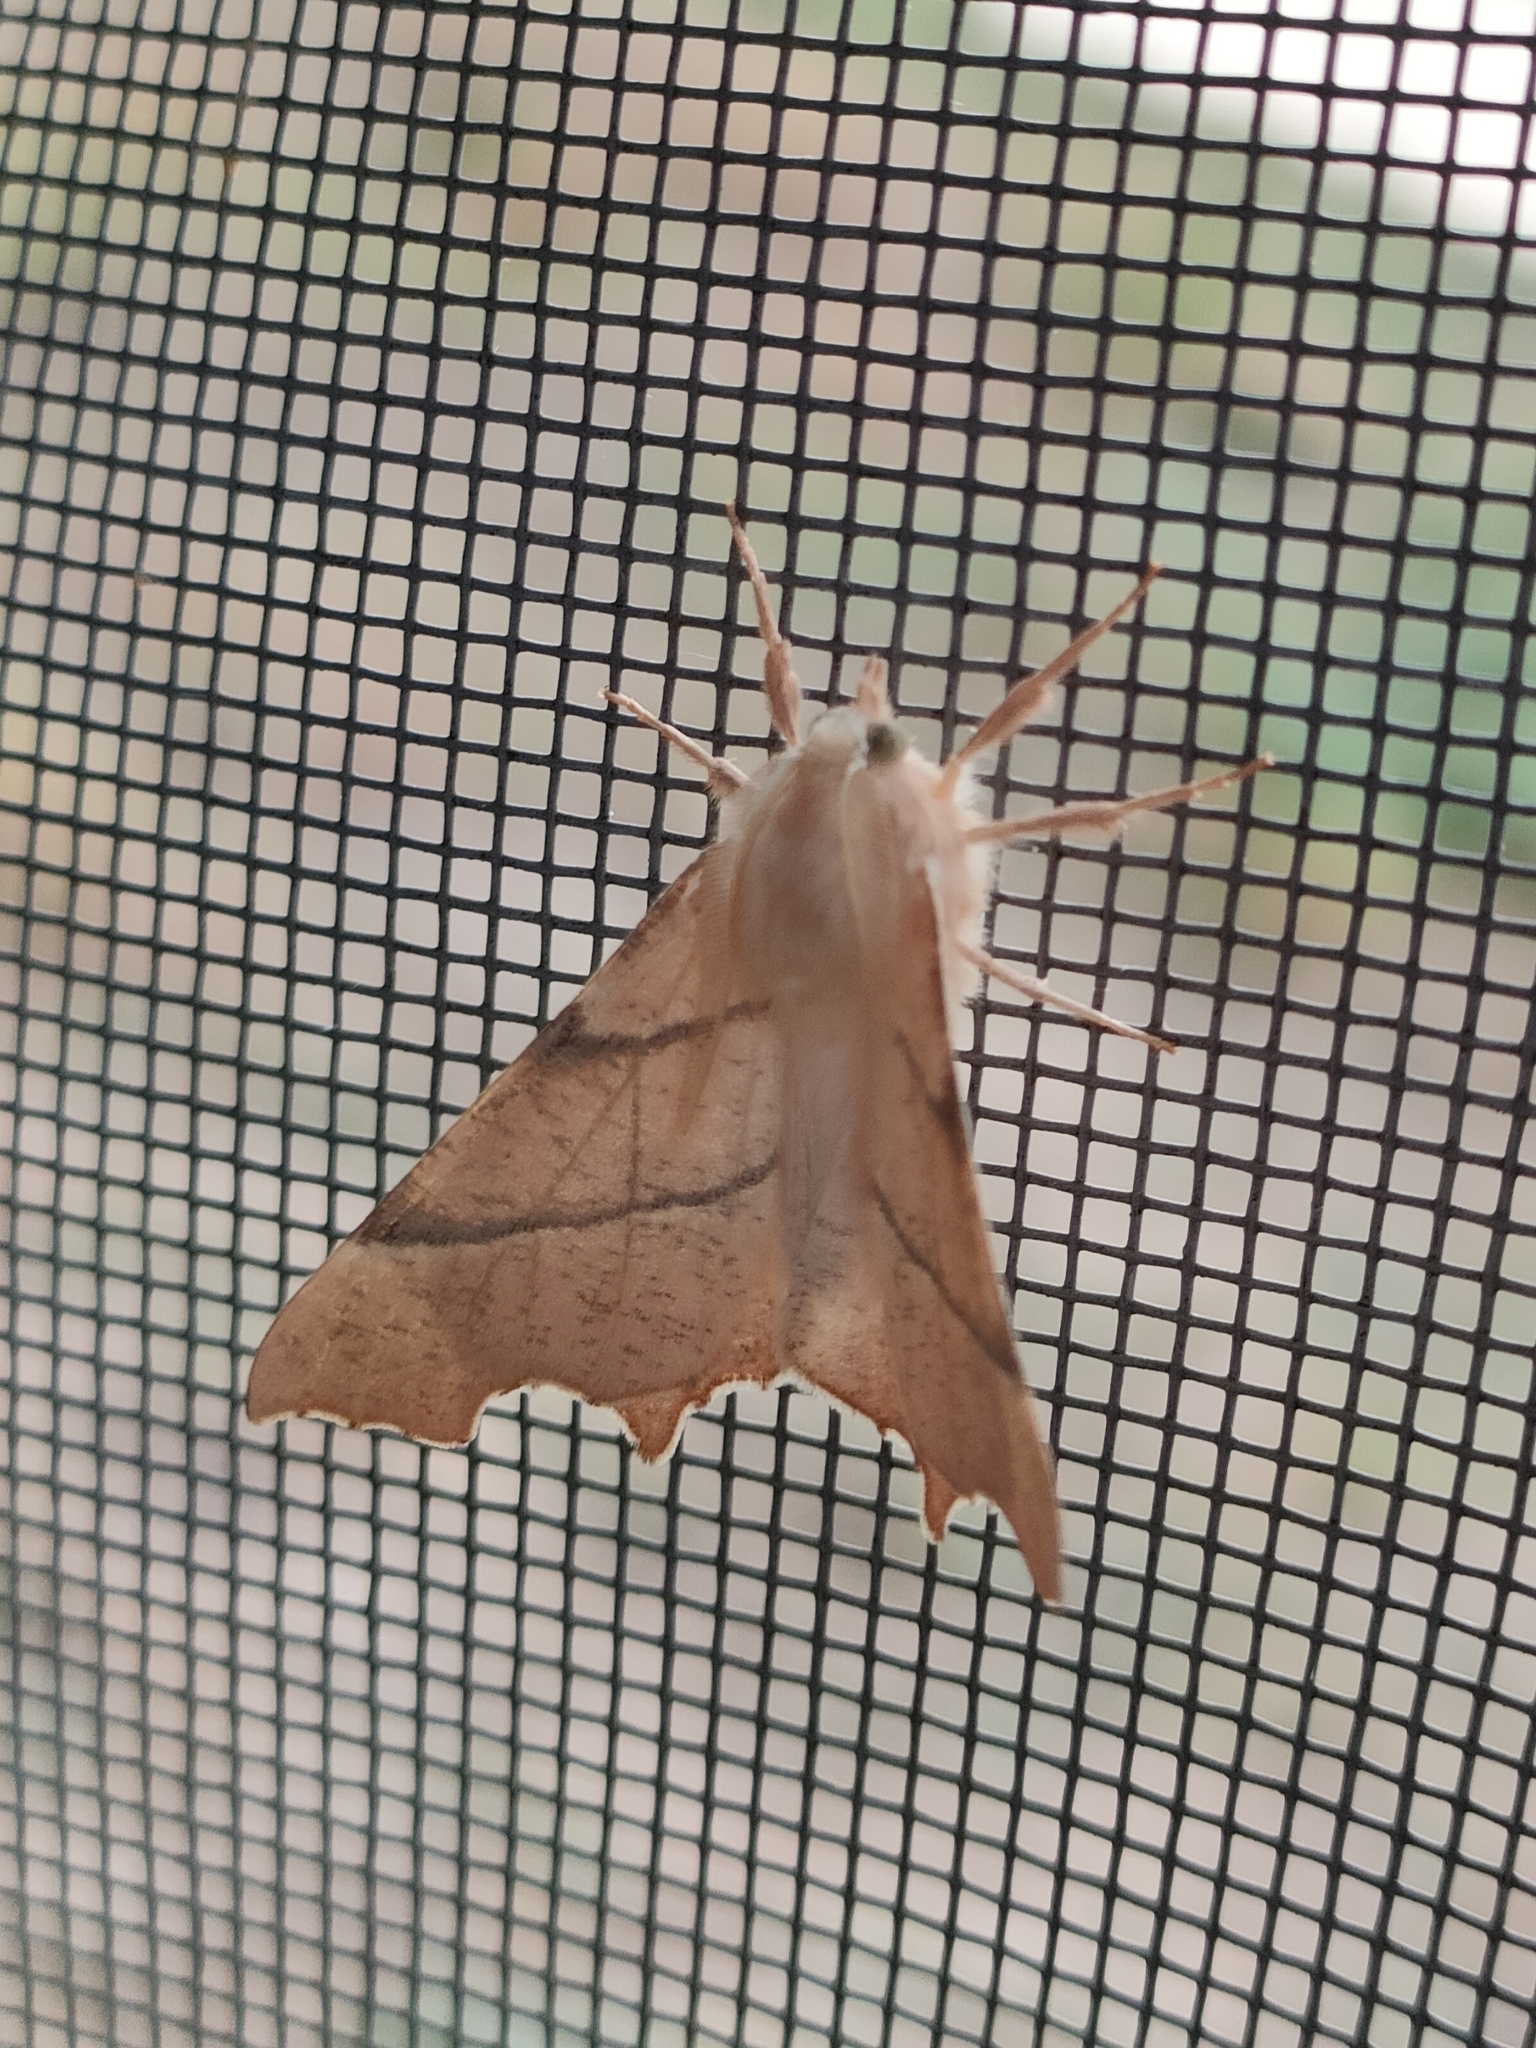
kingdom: Animalia
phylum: Arthropoda
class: Insecta
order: Lepidoptera
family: Geometridae
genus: Ennomos
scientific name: Ennomos erosaria
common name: September thorn
